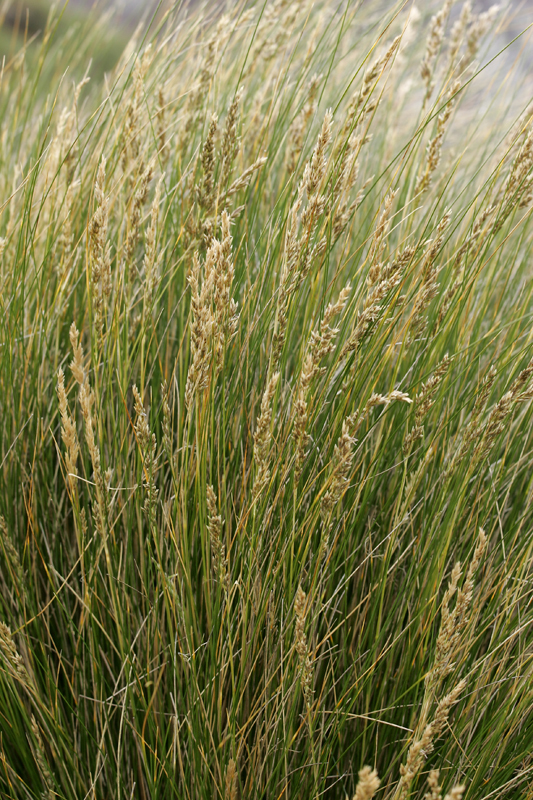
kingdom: Plantae
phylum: Tracheophyta
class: Liliopsida
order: Poales
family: Poaceae
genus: Poa
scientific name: Poa litorosa
